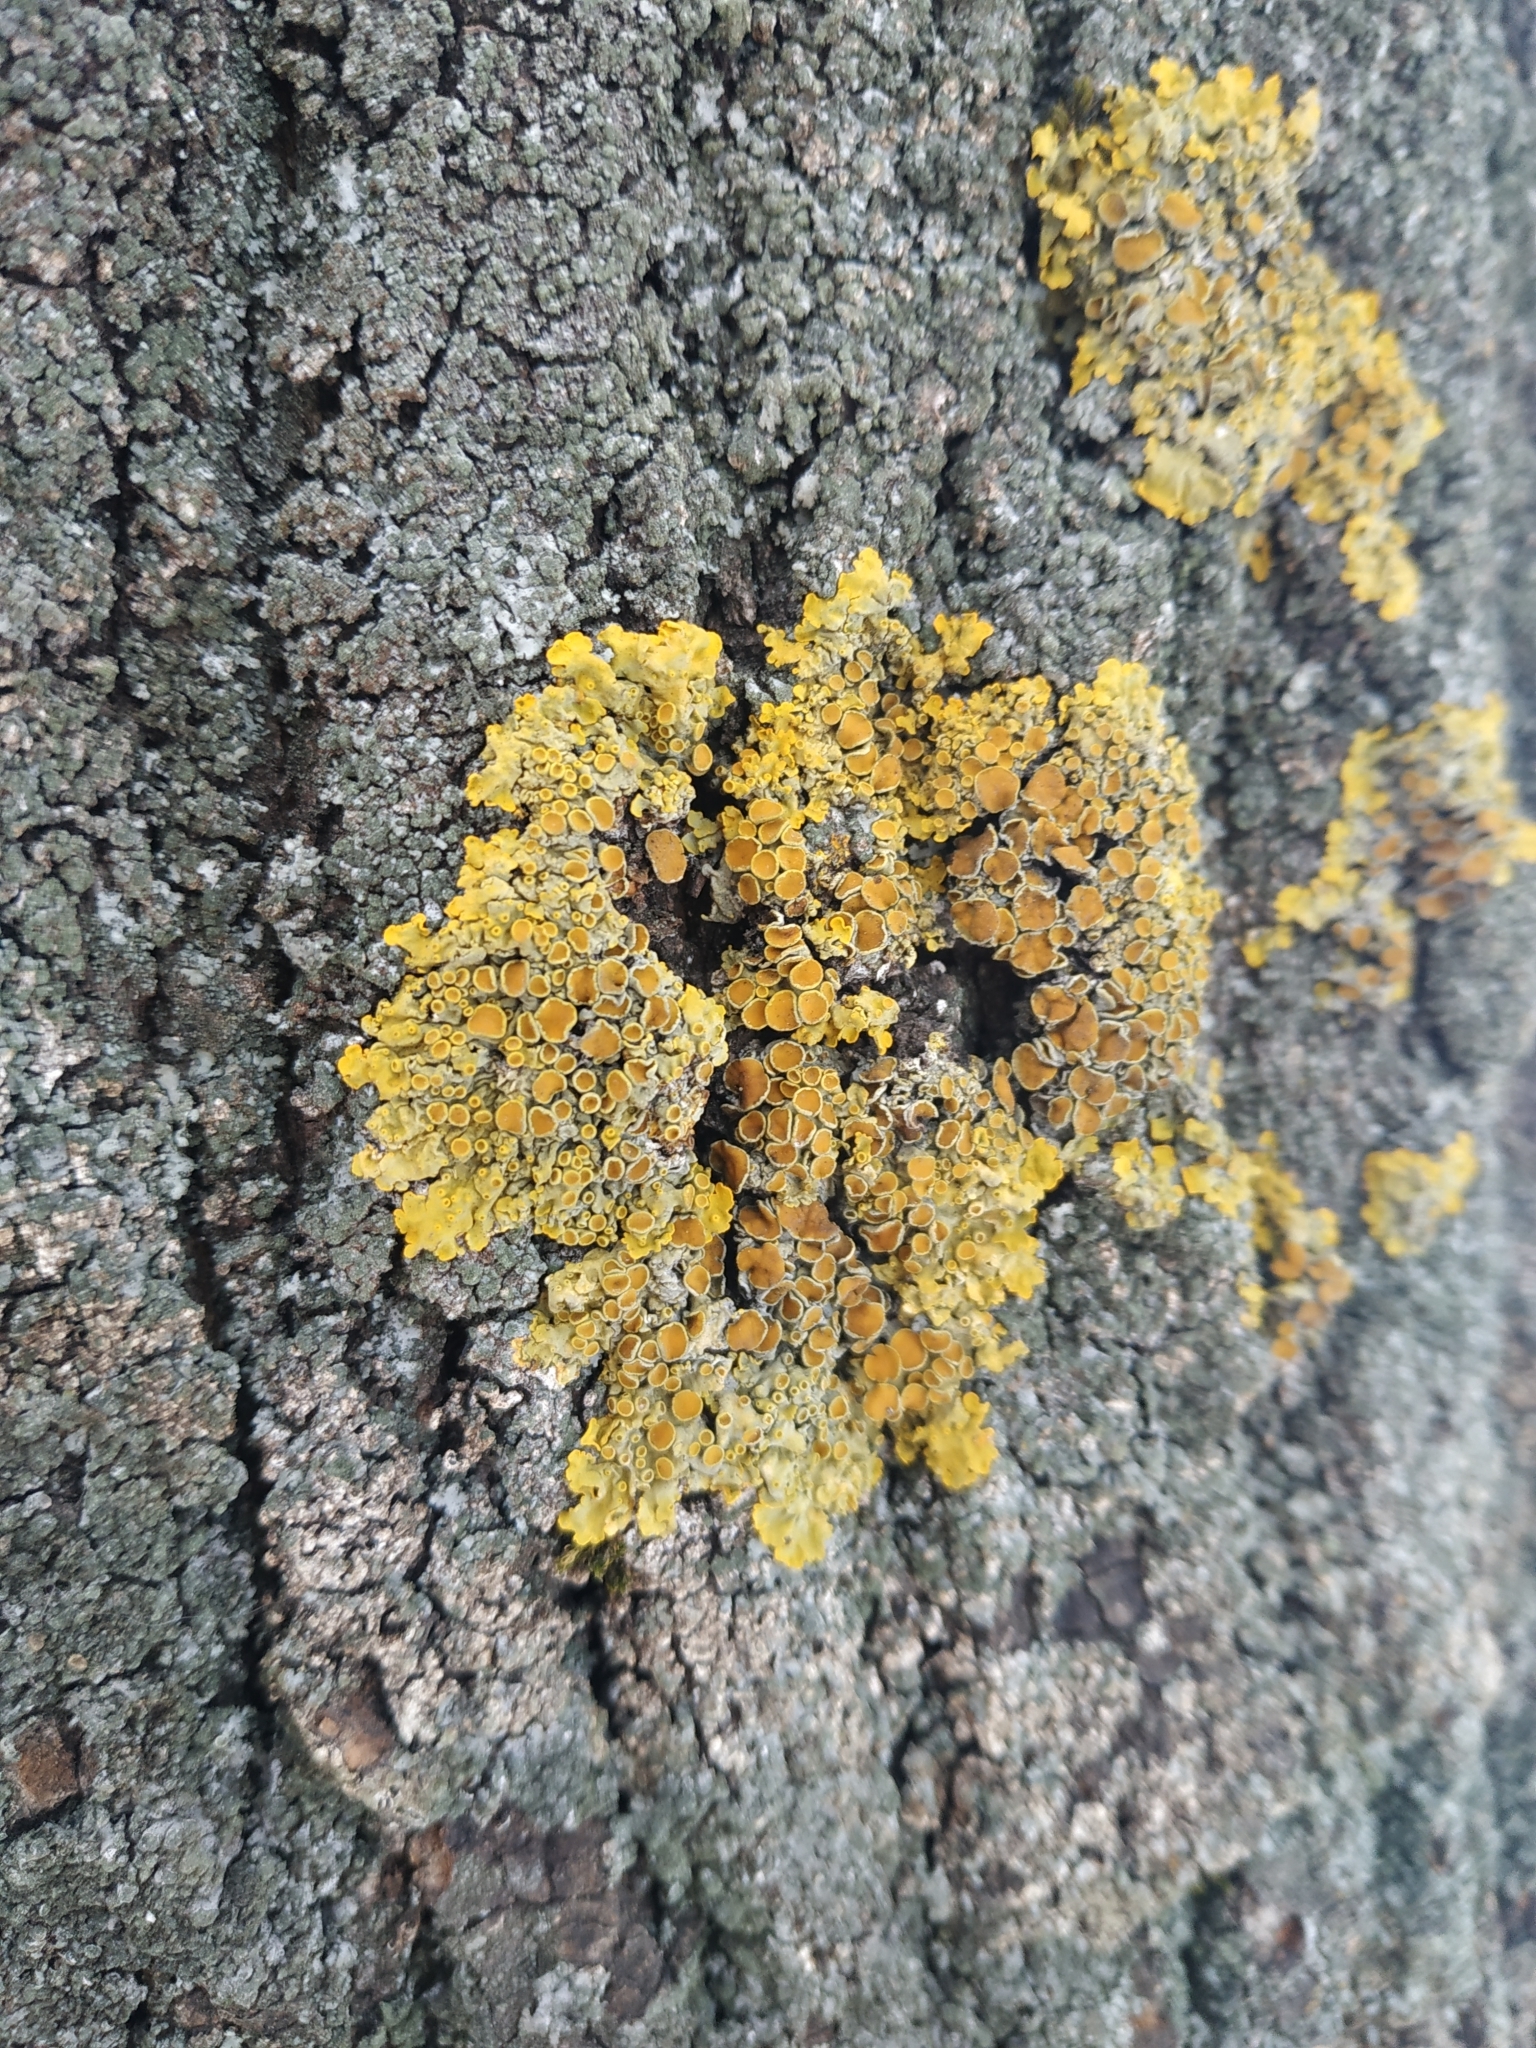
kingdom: Fungi
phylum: Ascomycota
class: Lecanoromycetes
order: Teloschistales
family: Teloschistaceae
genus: Xanthoria
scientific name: Xanthoria parietina
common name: Common orange lichen
